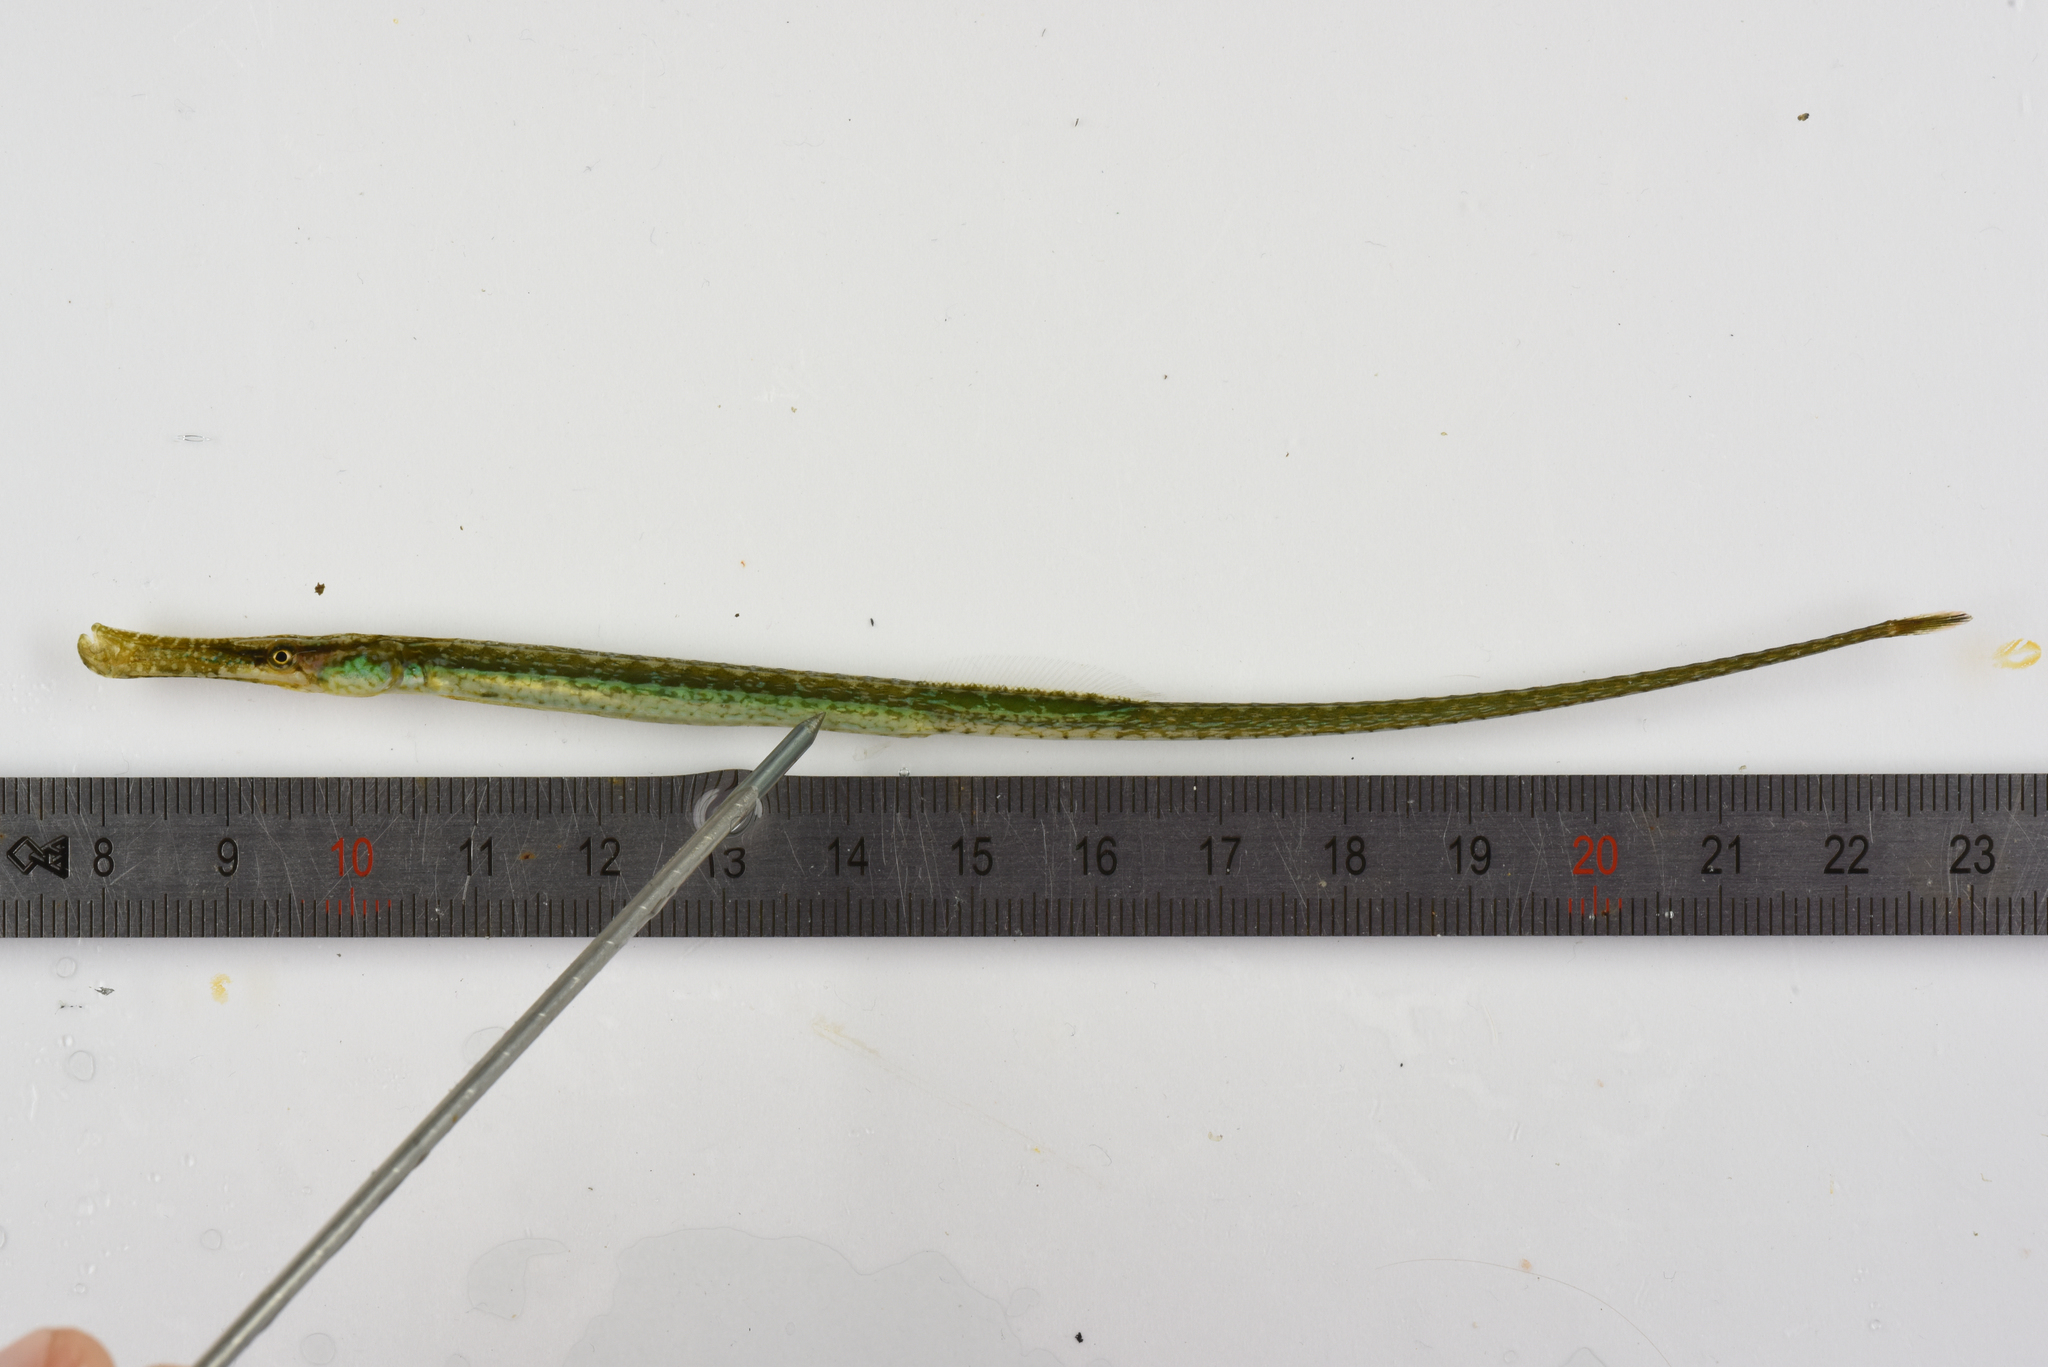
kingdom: Animalia
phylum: Chordata
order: Syngnathiformes
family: Syngnathidae
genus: Syngnathus
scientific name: Syngnathus typhle
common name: Deep-snouted pipefish
